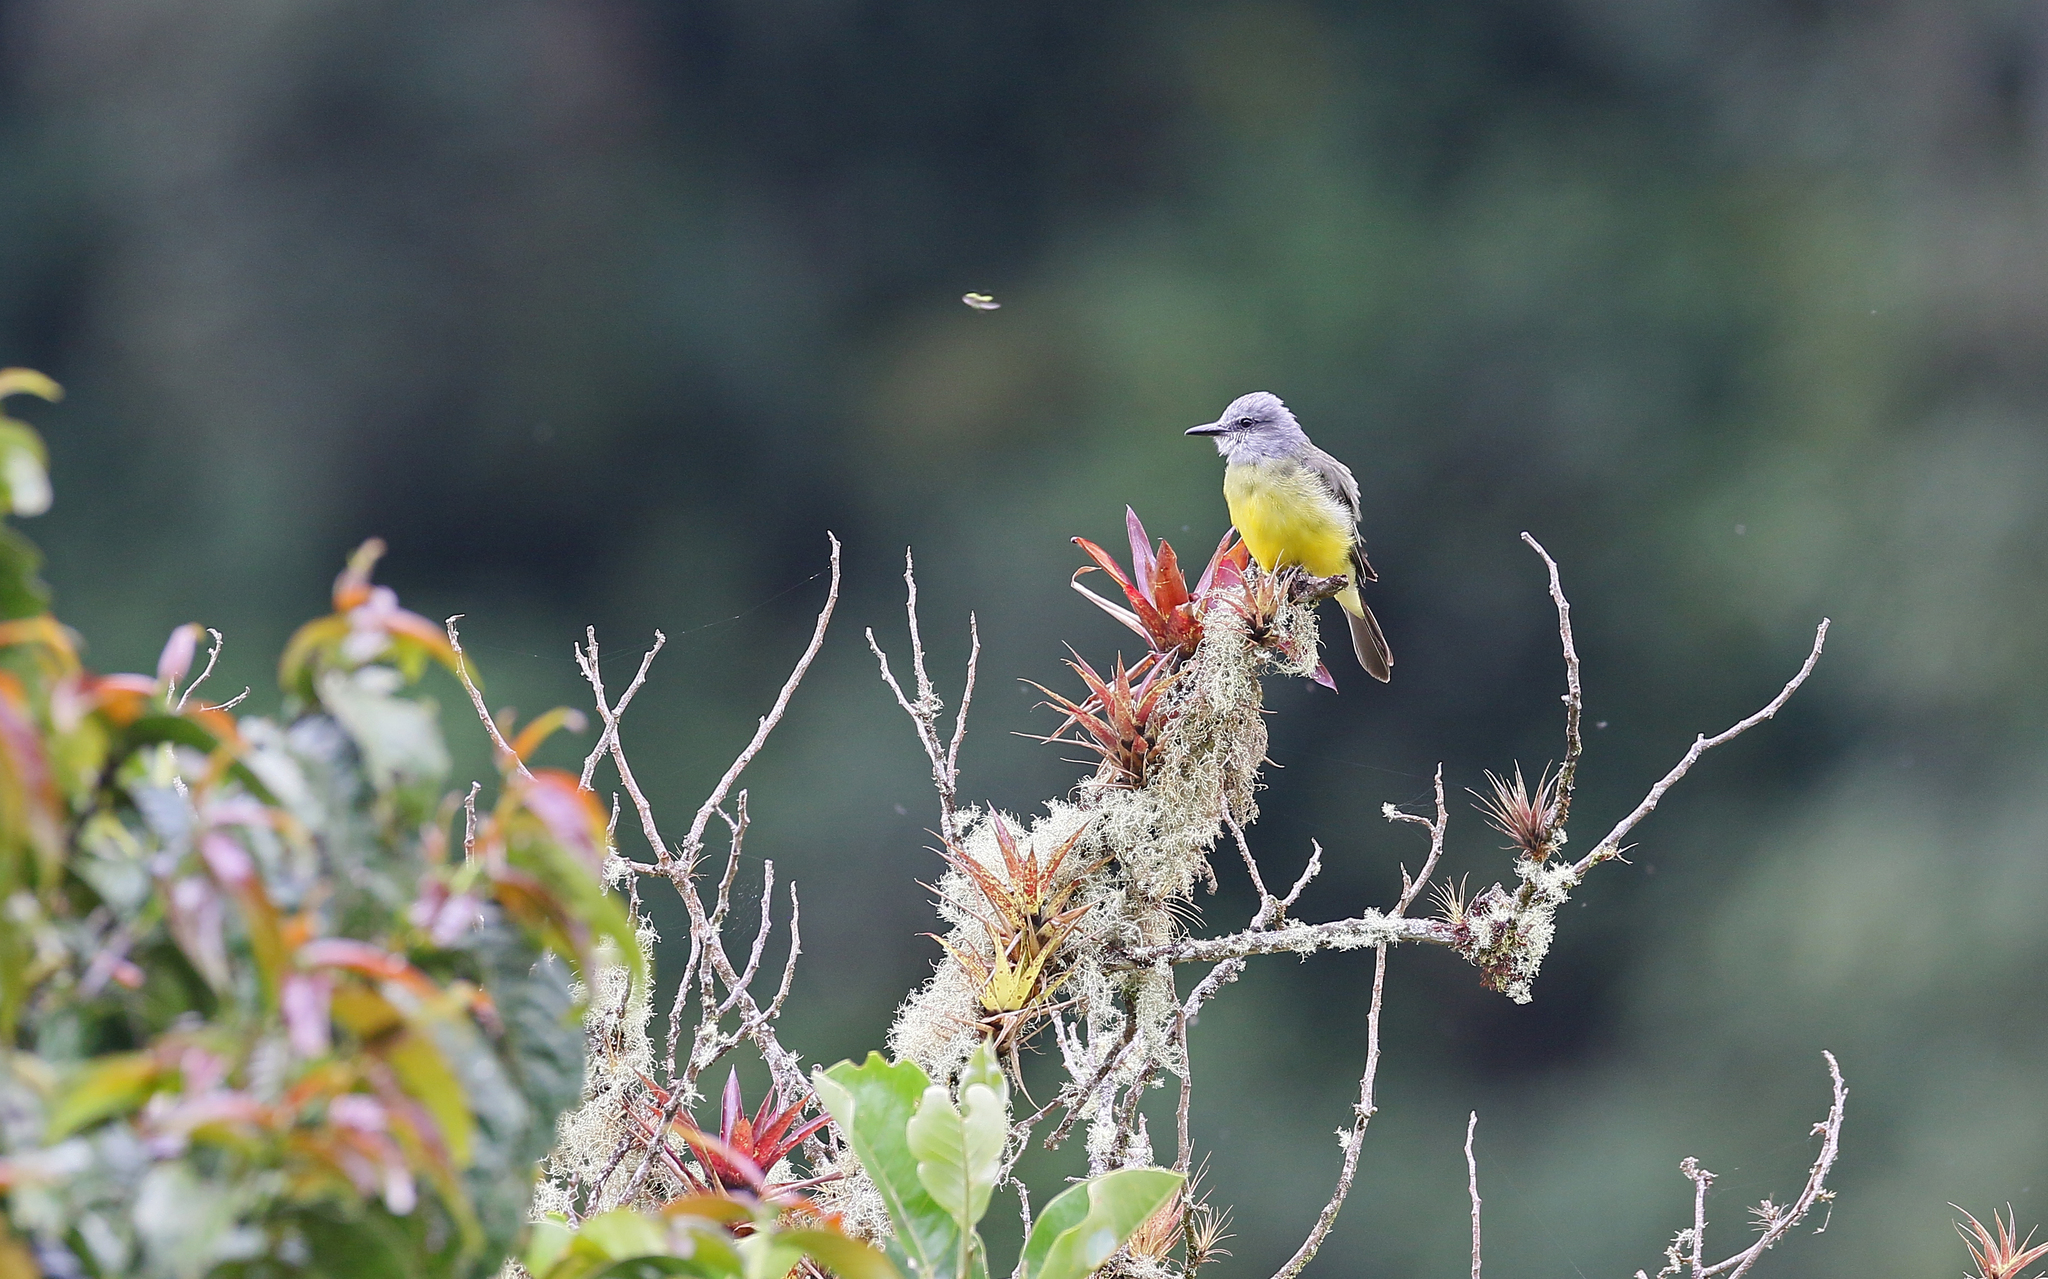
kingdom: Animalia
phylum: Chordata
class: Aves
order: Passeriformes
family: Tyrannidae
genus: Tyrannus
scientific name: Tyrannus melancholicus
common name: Tropical kingbird
